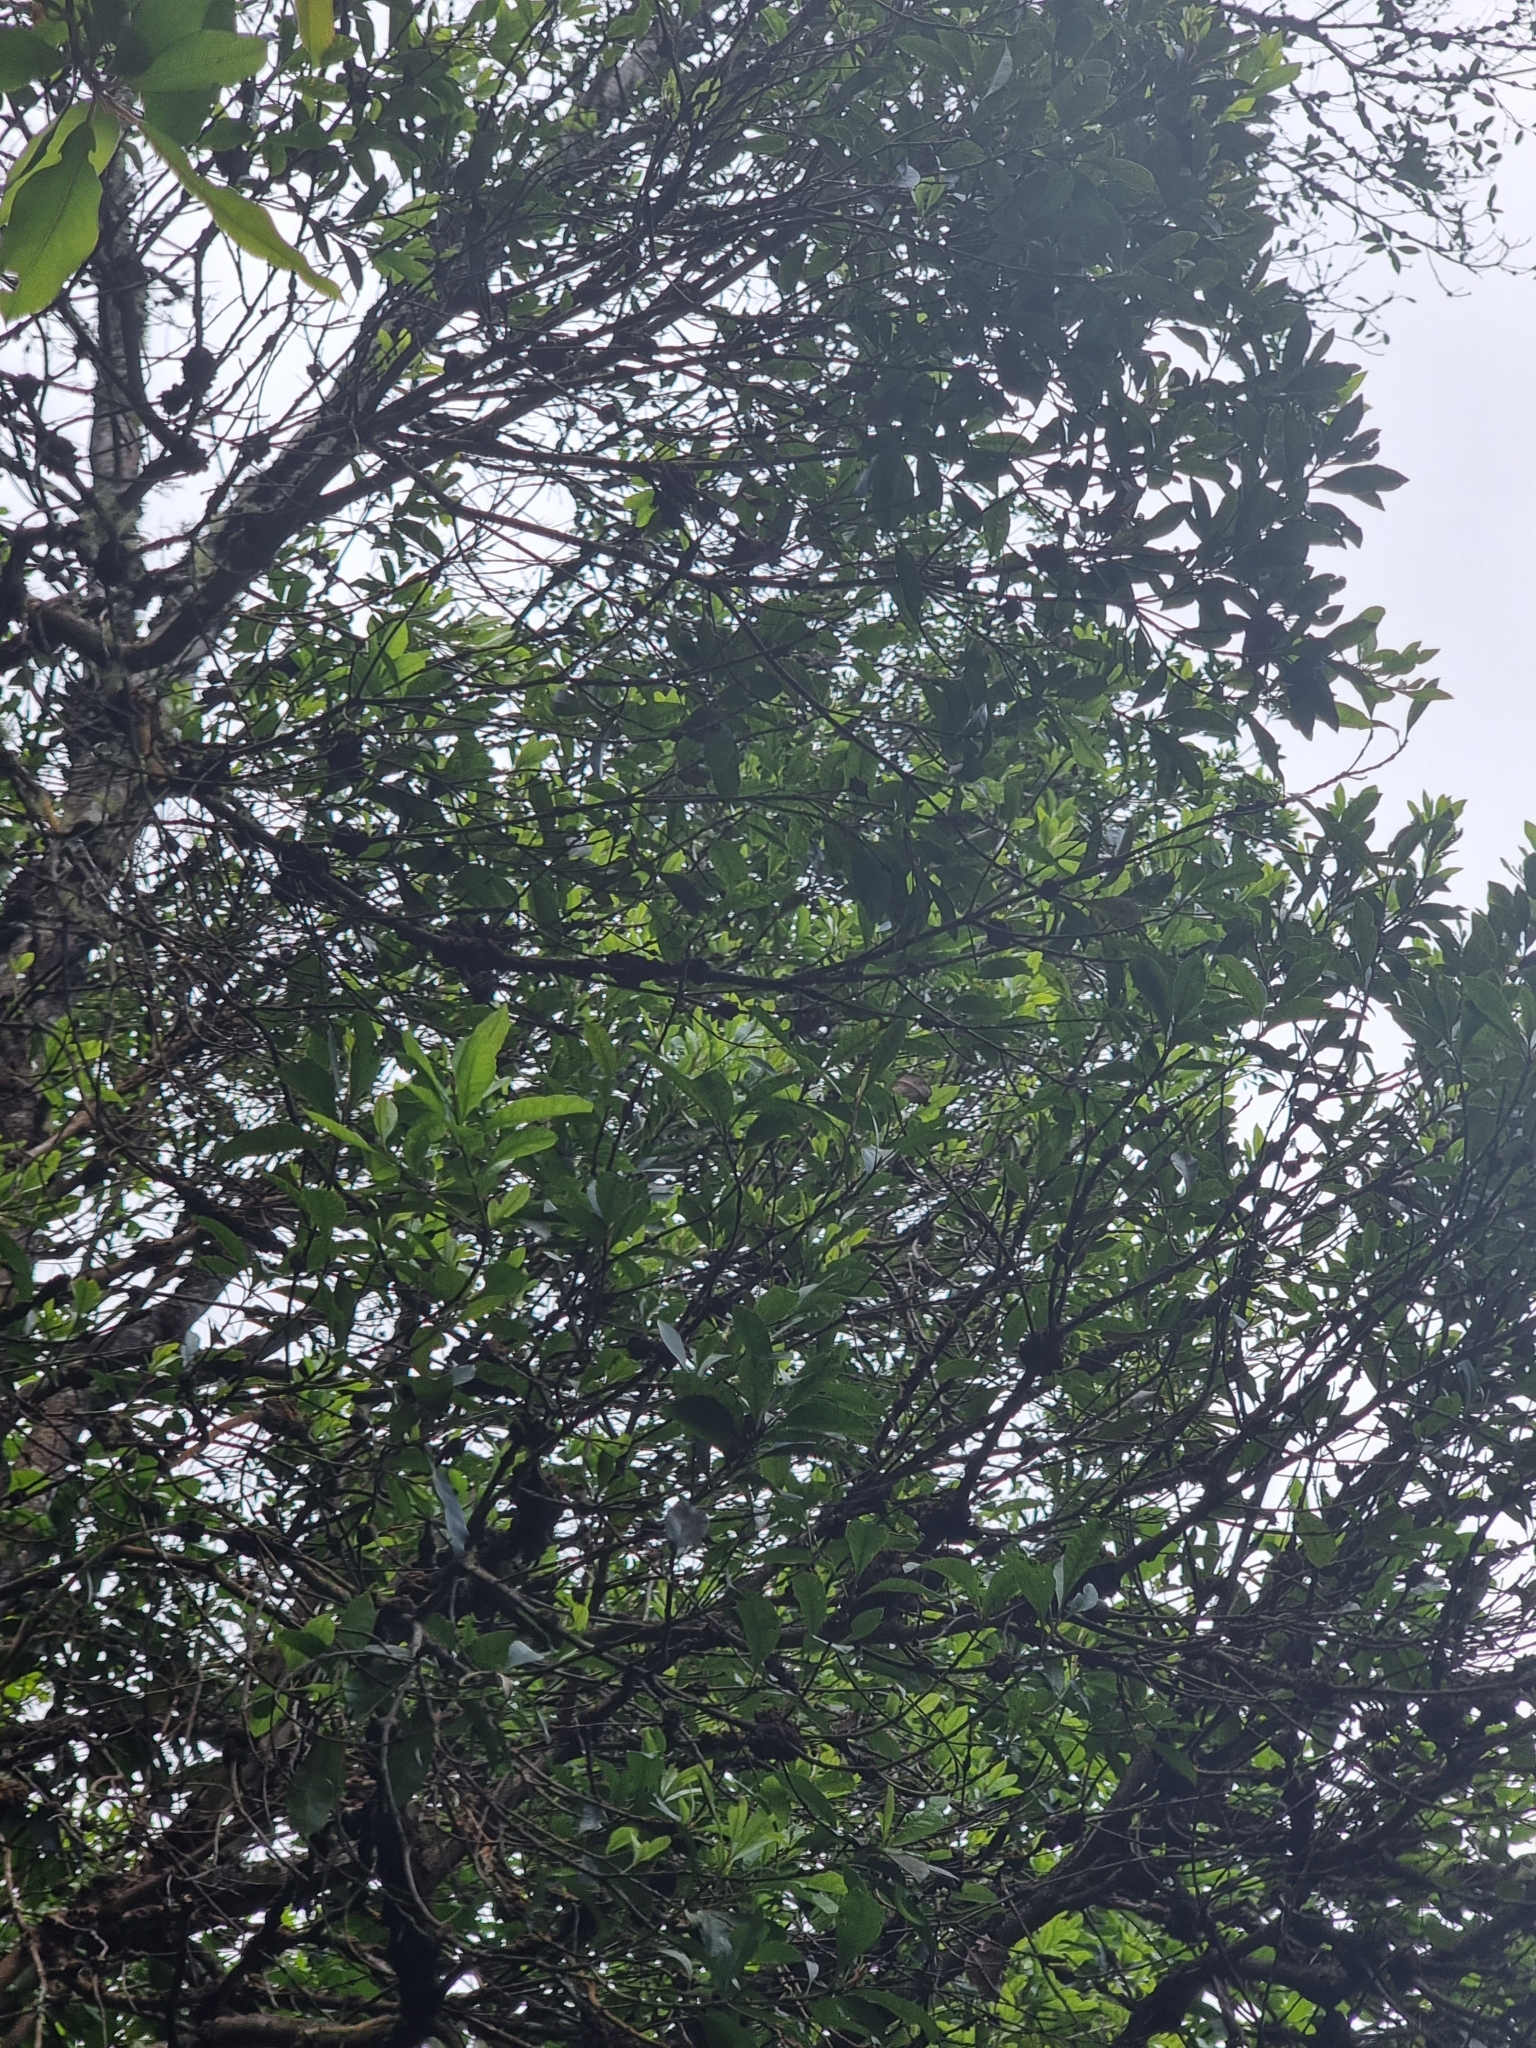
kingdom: Plantae
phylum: Tracheophyta
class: Magnoliopsida
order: Fagales
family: Myricaceae
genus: Morella
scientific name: Morella faya
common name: Firetree
